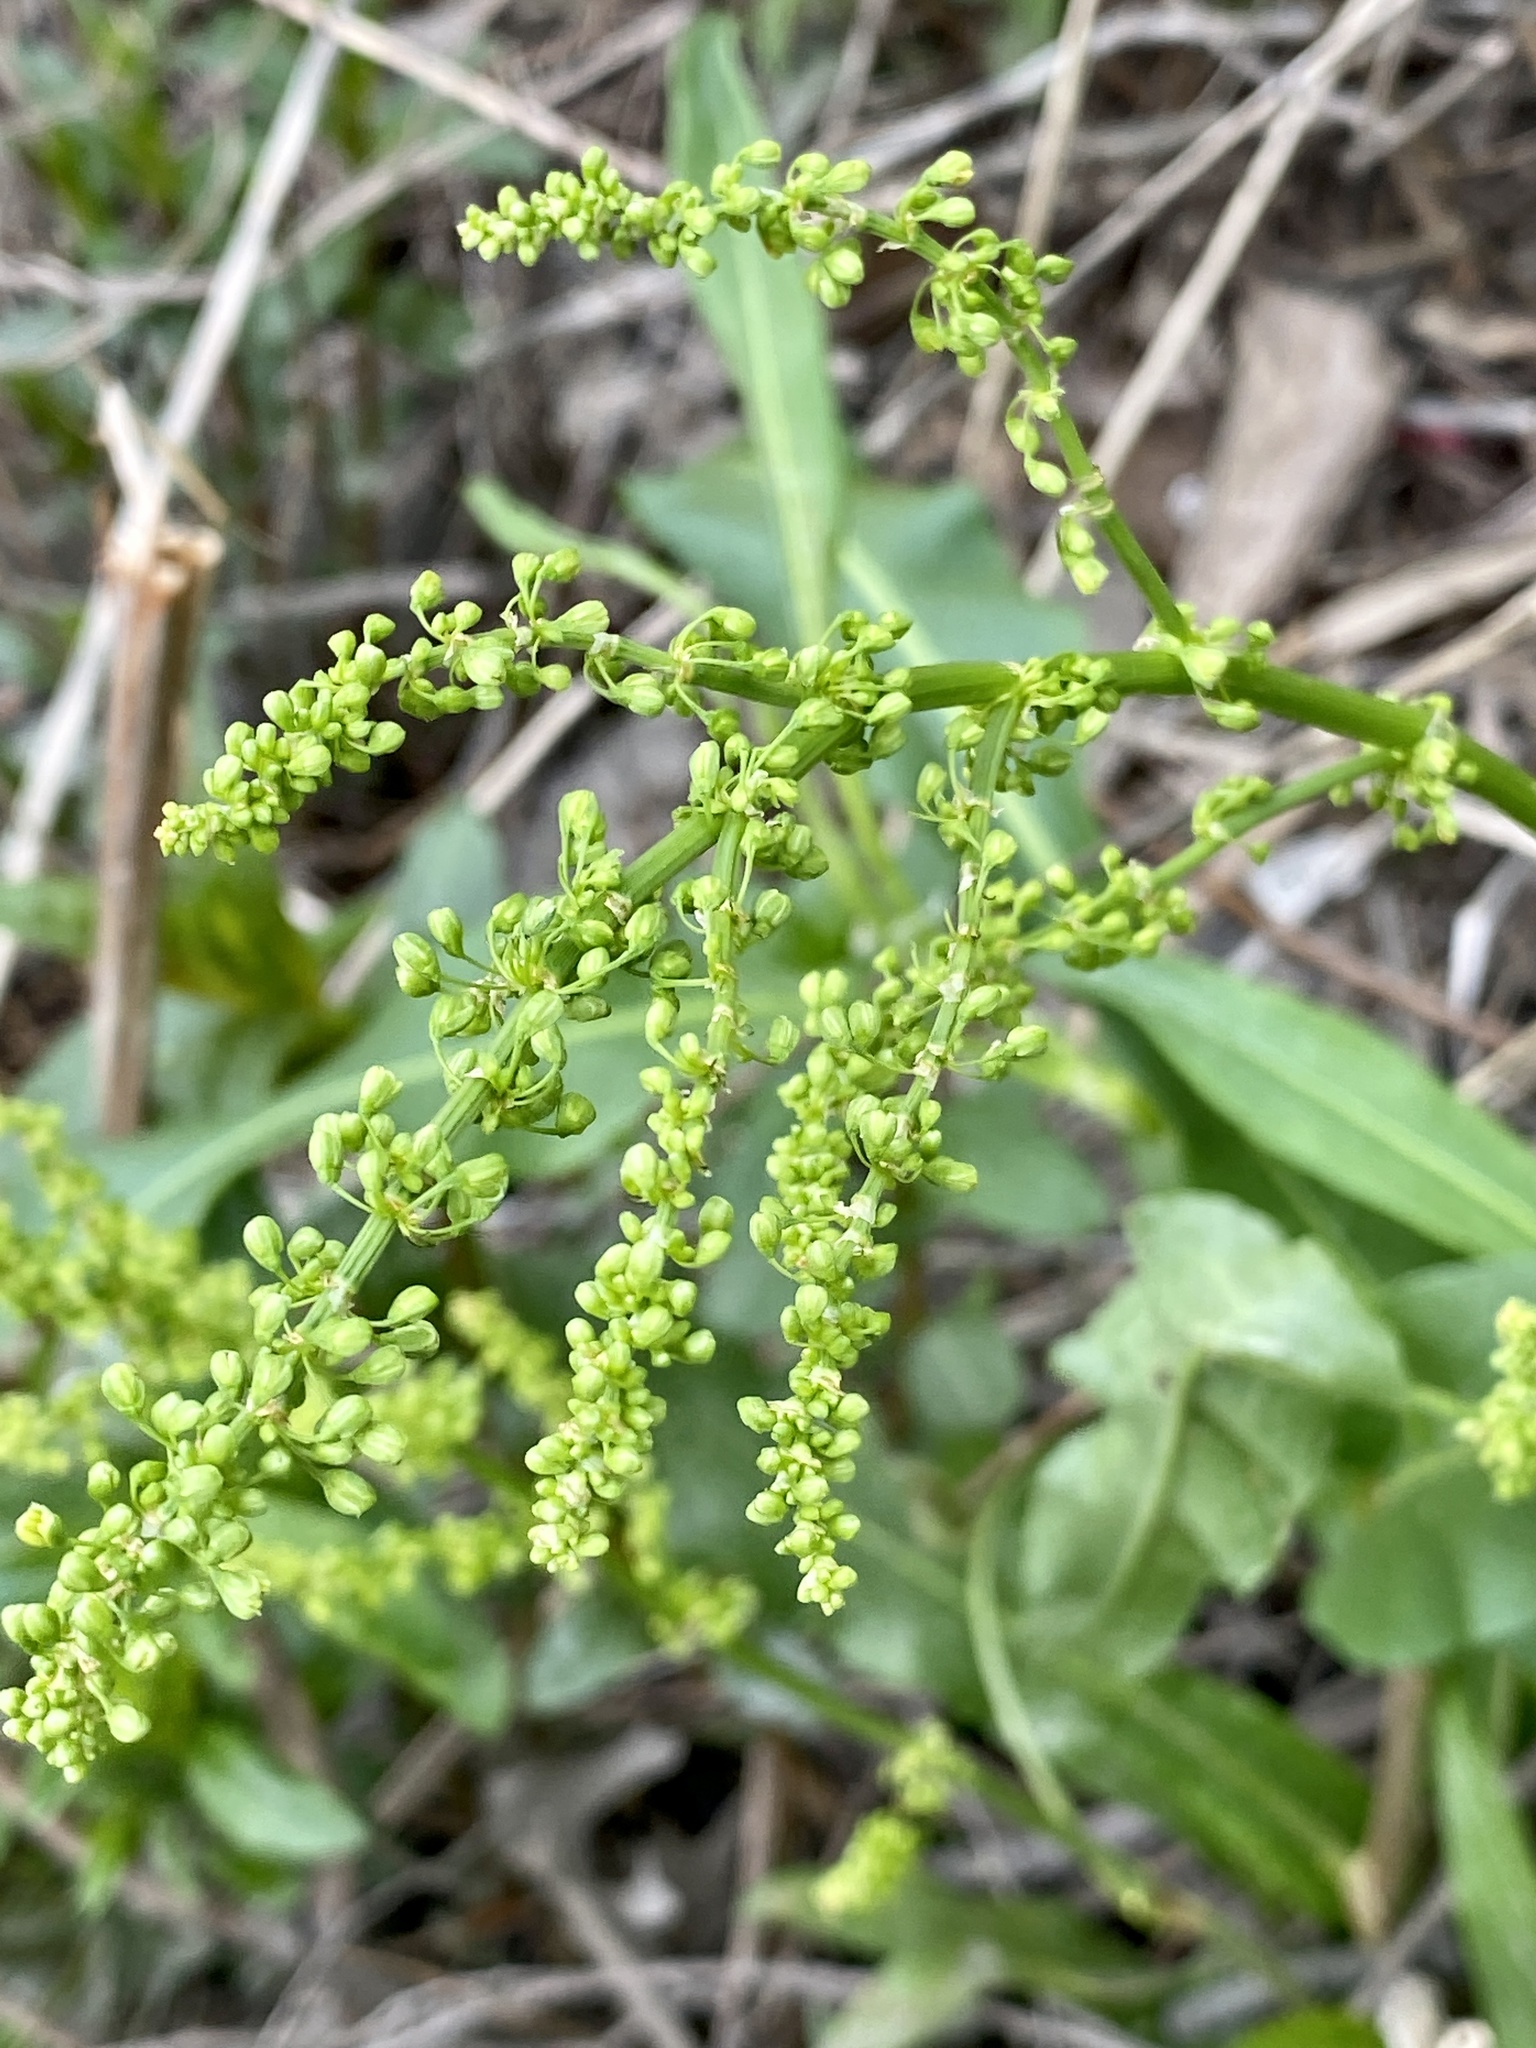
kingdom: Plantae
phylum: Tracheophyta
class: Magnoliopsida
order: Caryophyllales
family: Polygonaceae
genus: Rumex
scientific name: Rumex crispus
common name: Curled dock
